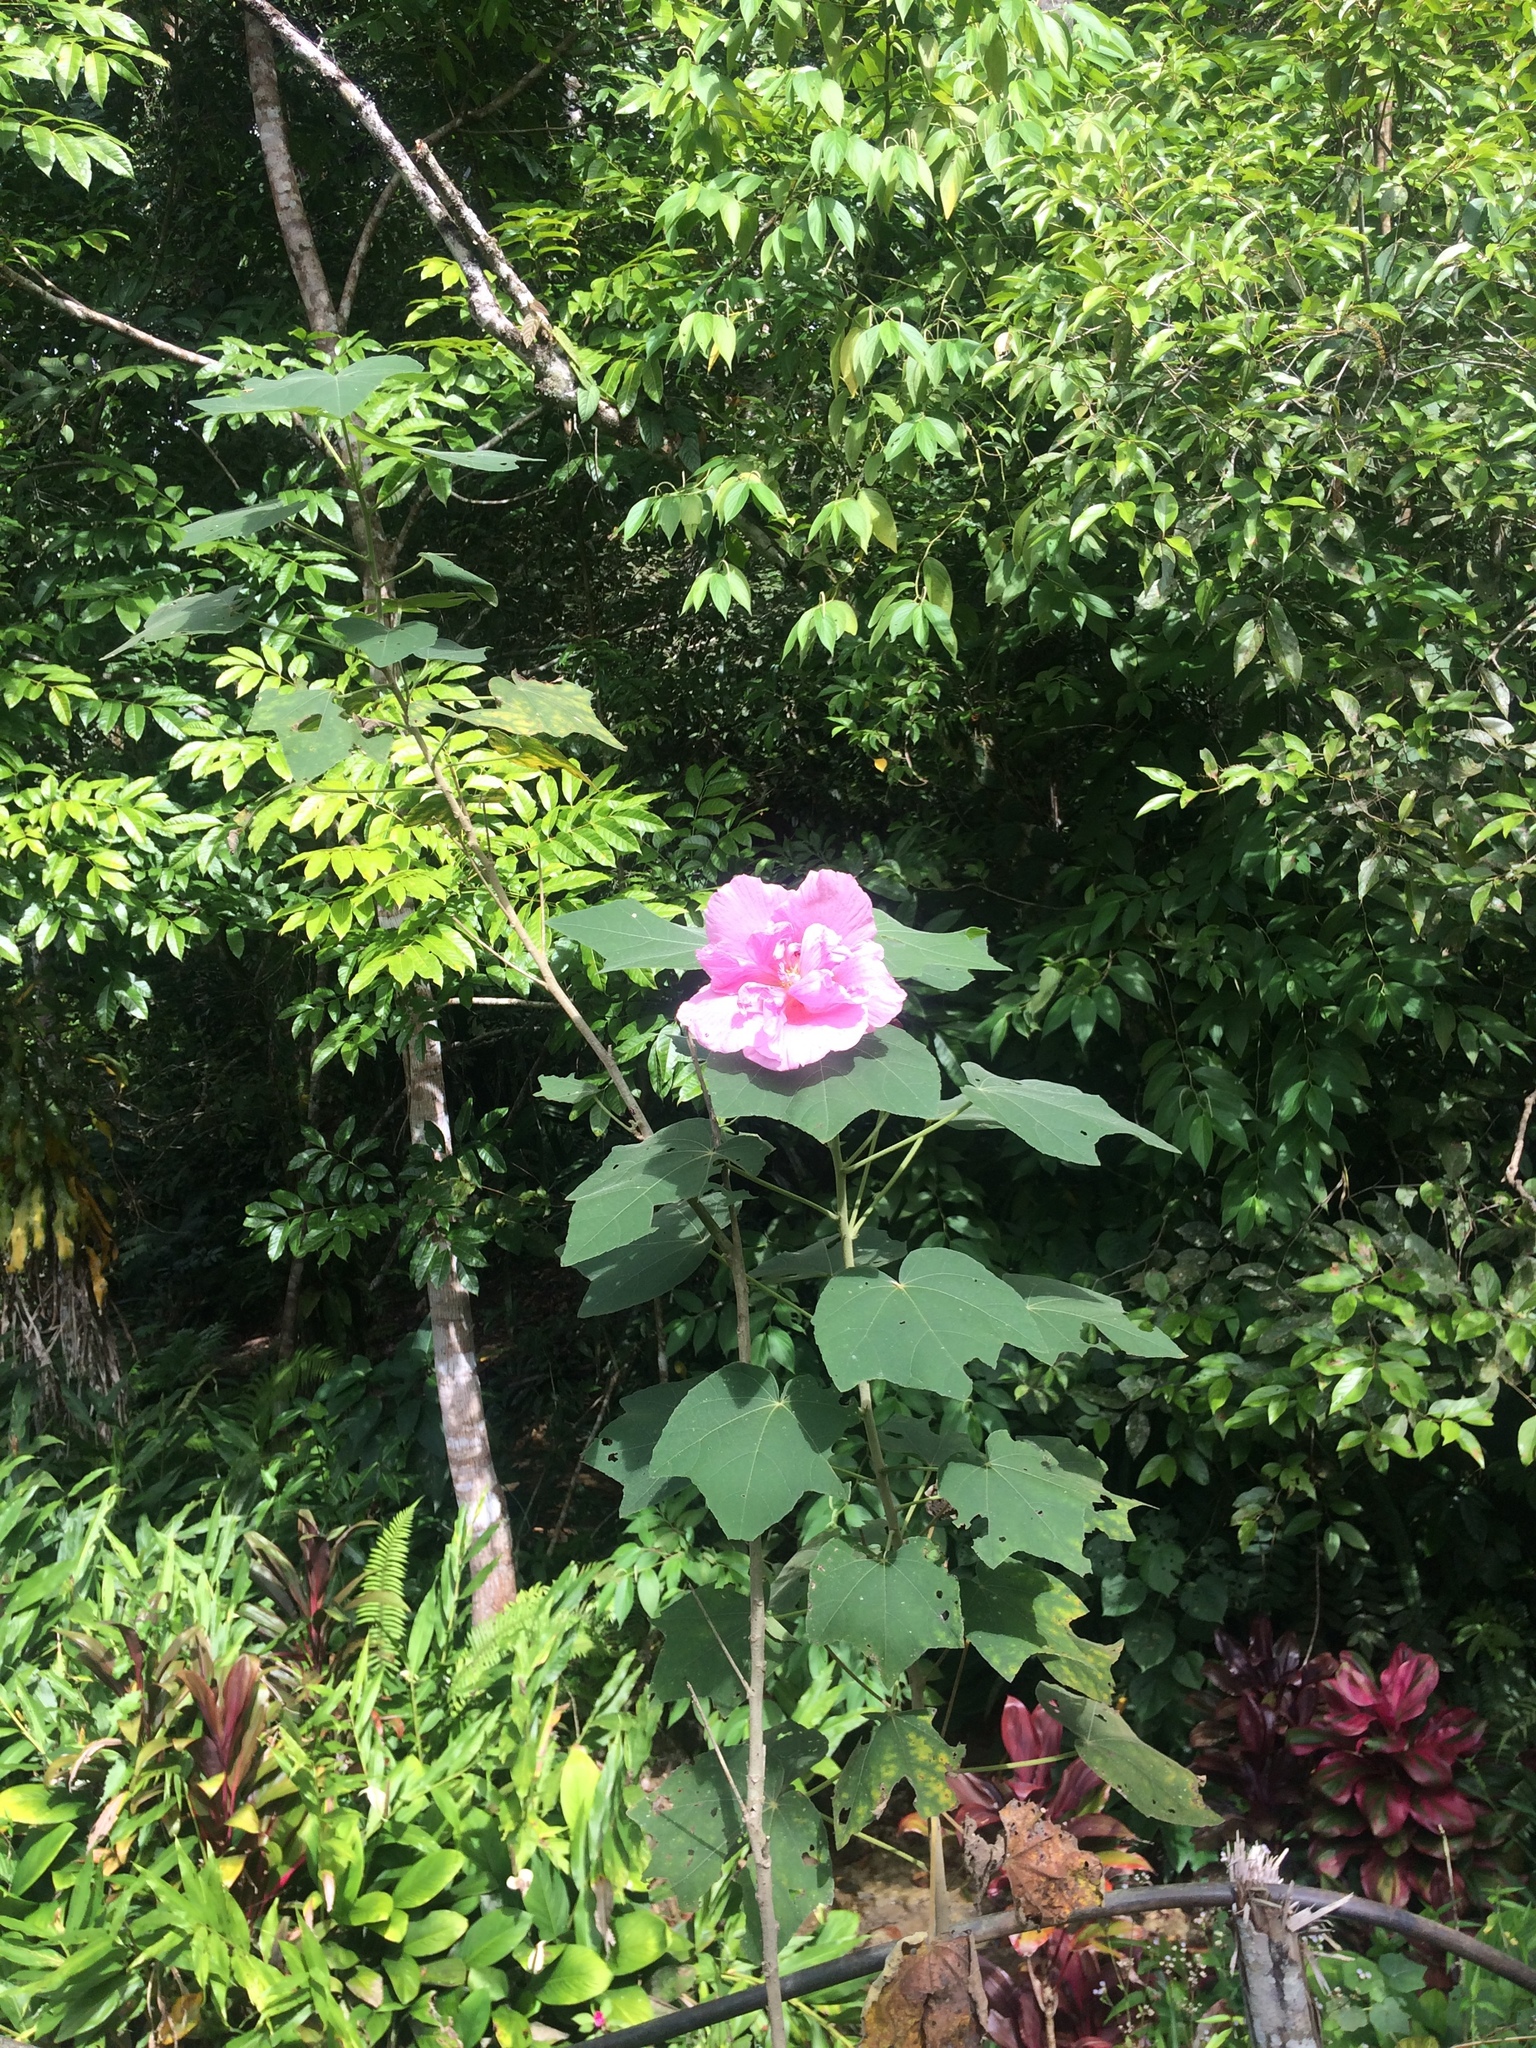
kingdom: Plantae
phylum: Tracheophyta
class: Magnoliopsida
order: Malvales
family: Malvaceae
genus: Hibiscus
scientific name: Hibiscus mutabilis
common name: Dixie rosemallow
